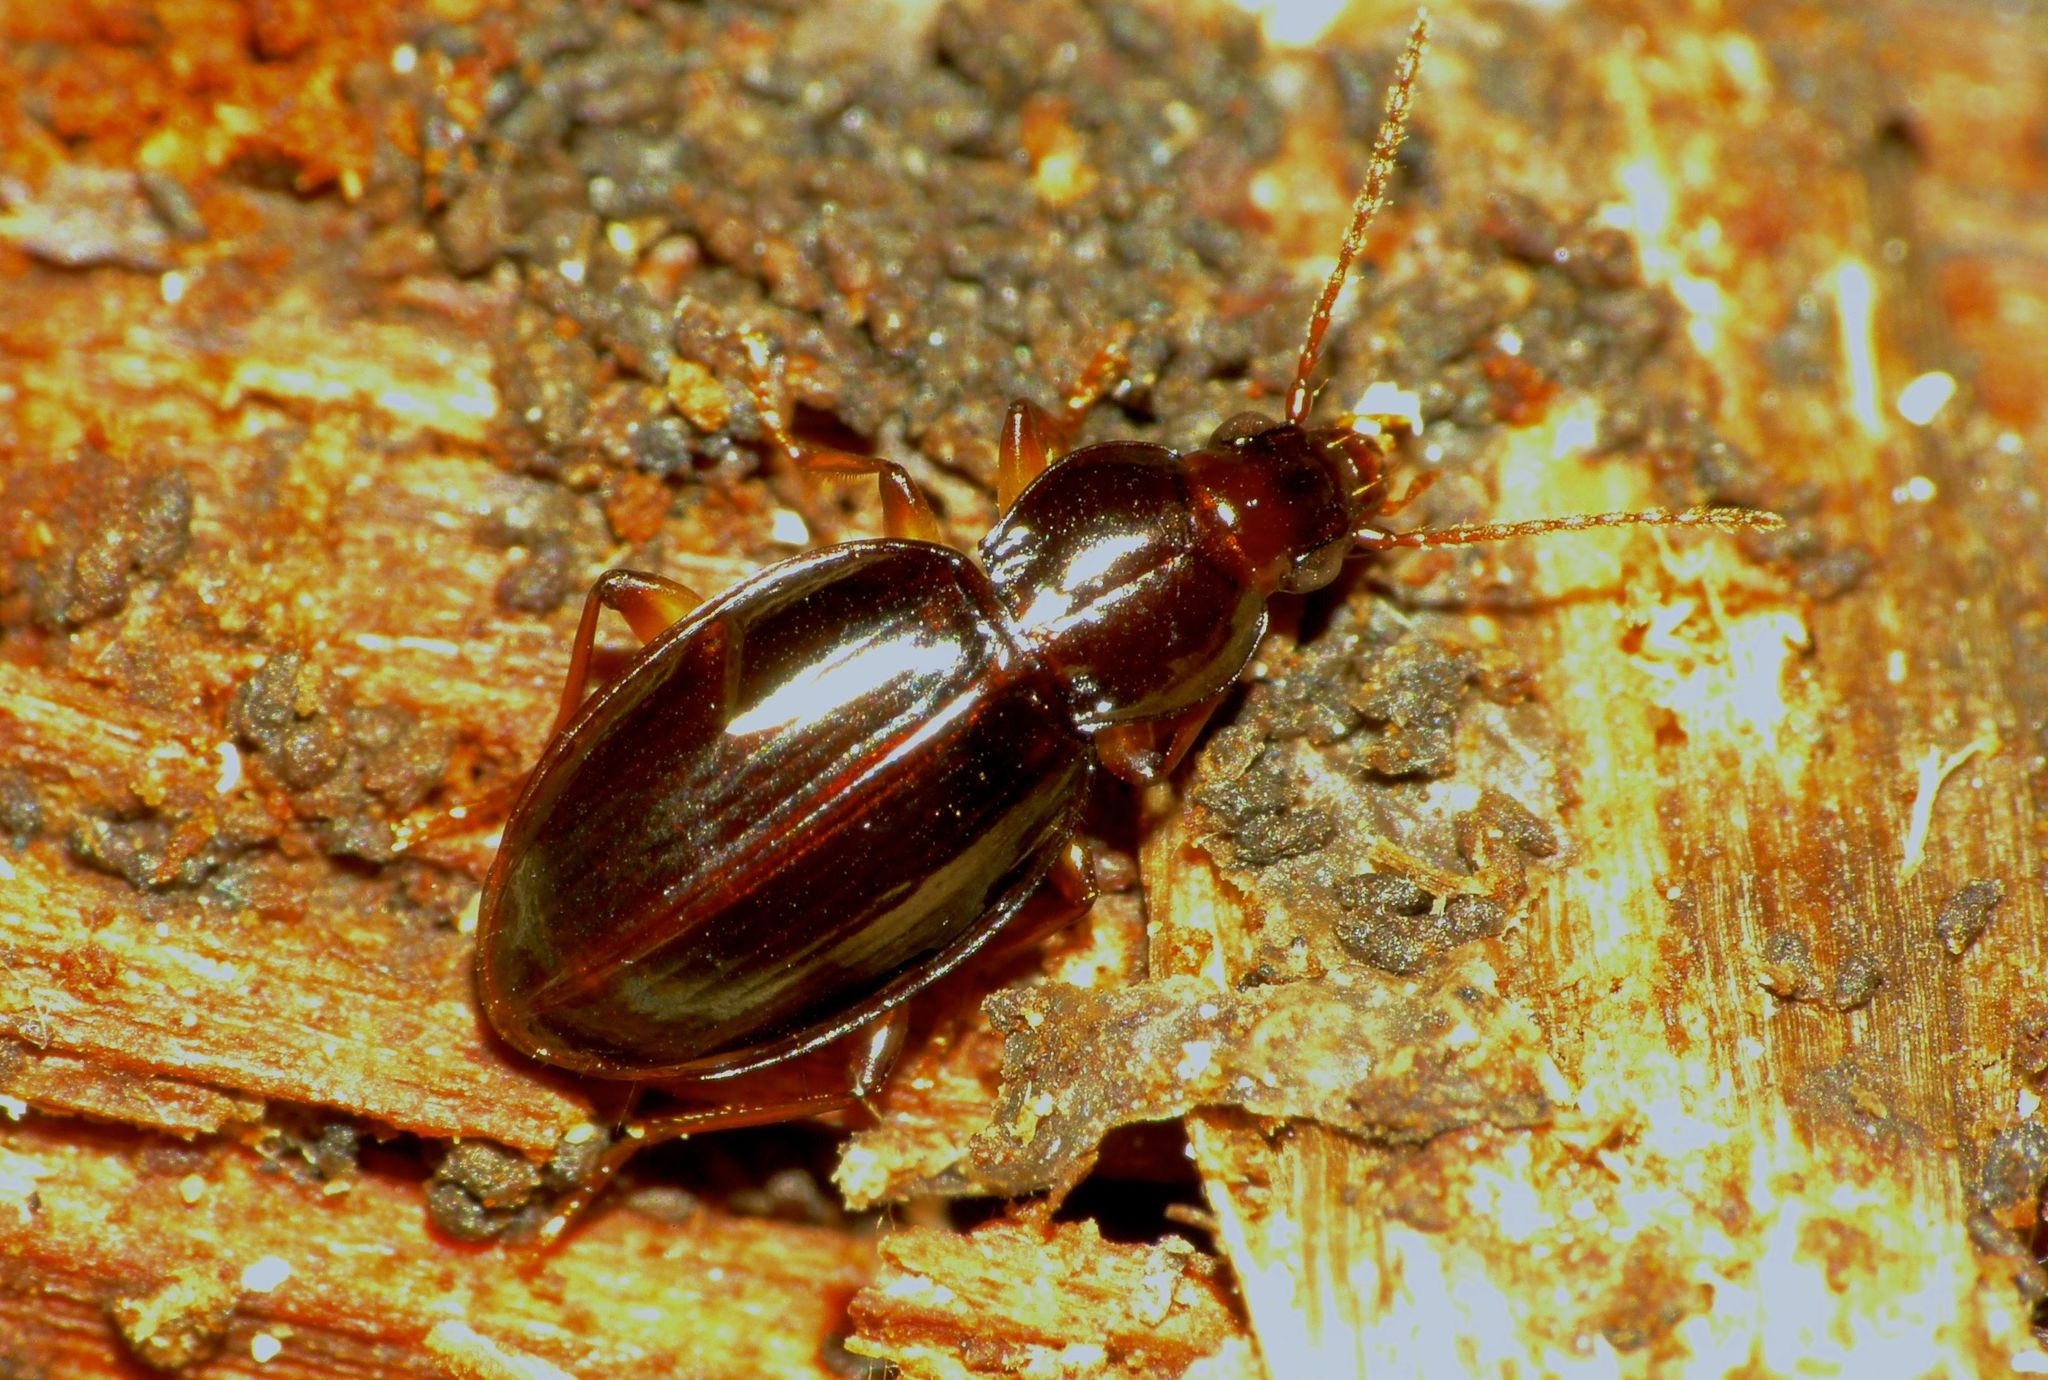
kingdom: Animalia
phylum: Arthropoda
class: Insecta
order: Coleoptera
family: Carabidae
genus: Oopterus
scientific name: Oopterus patulus
